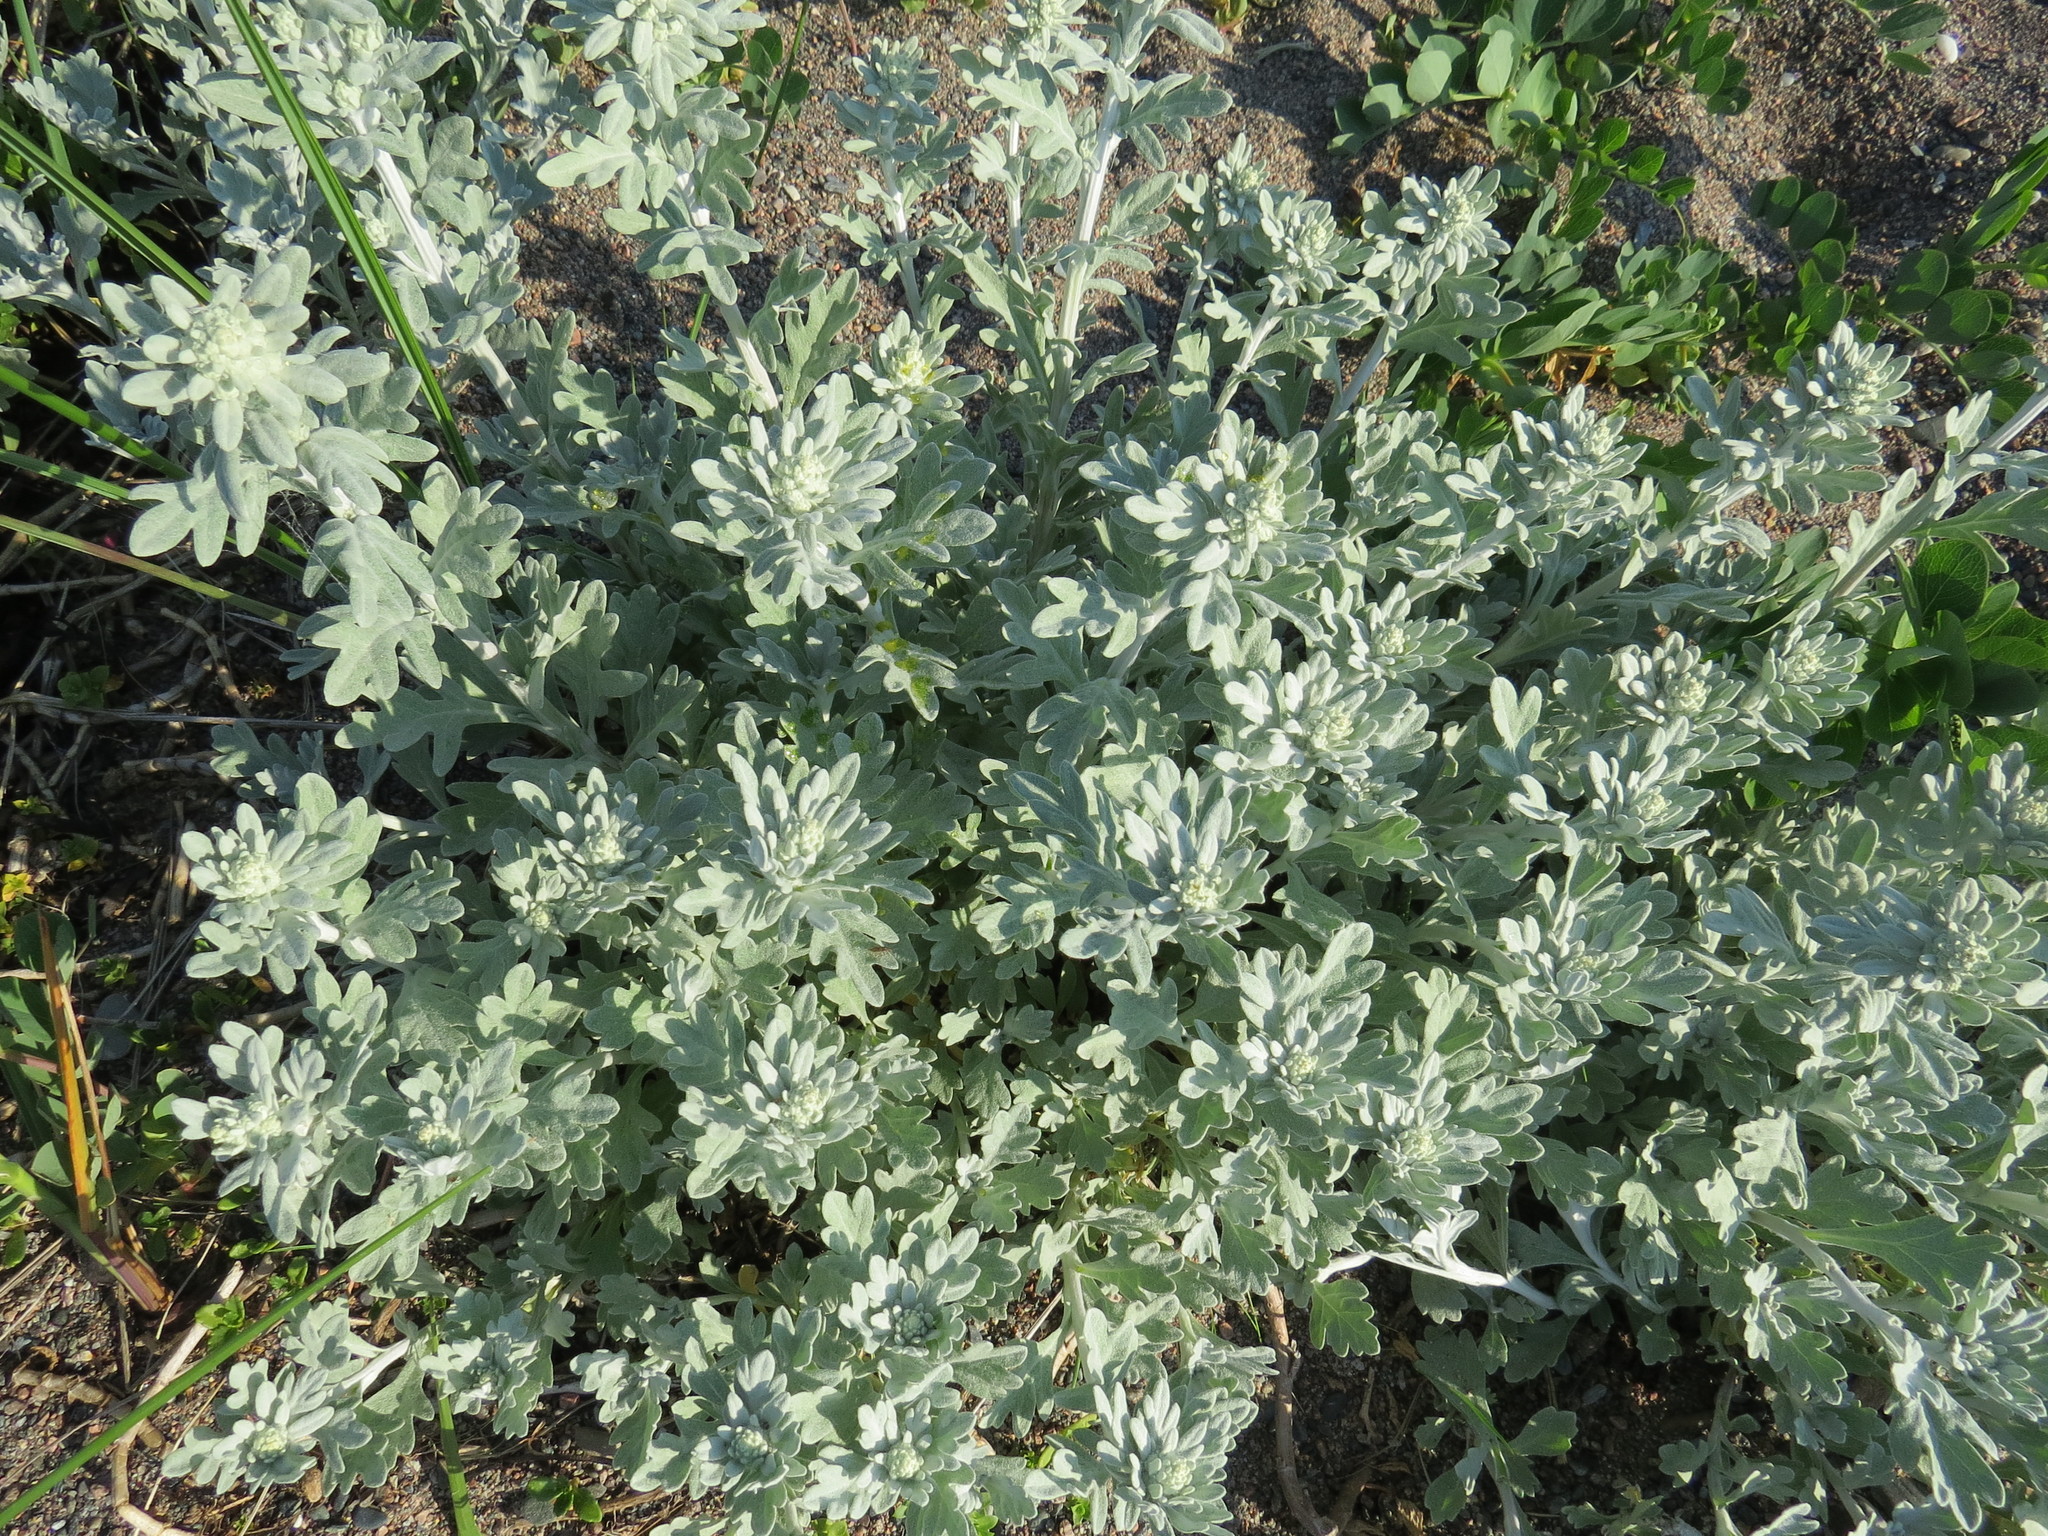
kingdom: Plantae
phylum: Tracheophyta
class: Magnoliopsida
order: Asterales
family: Asteraceae
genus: Artemisia
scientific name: Artemisia stelleriana
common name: Beach wormwood
